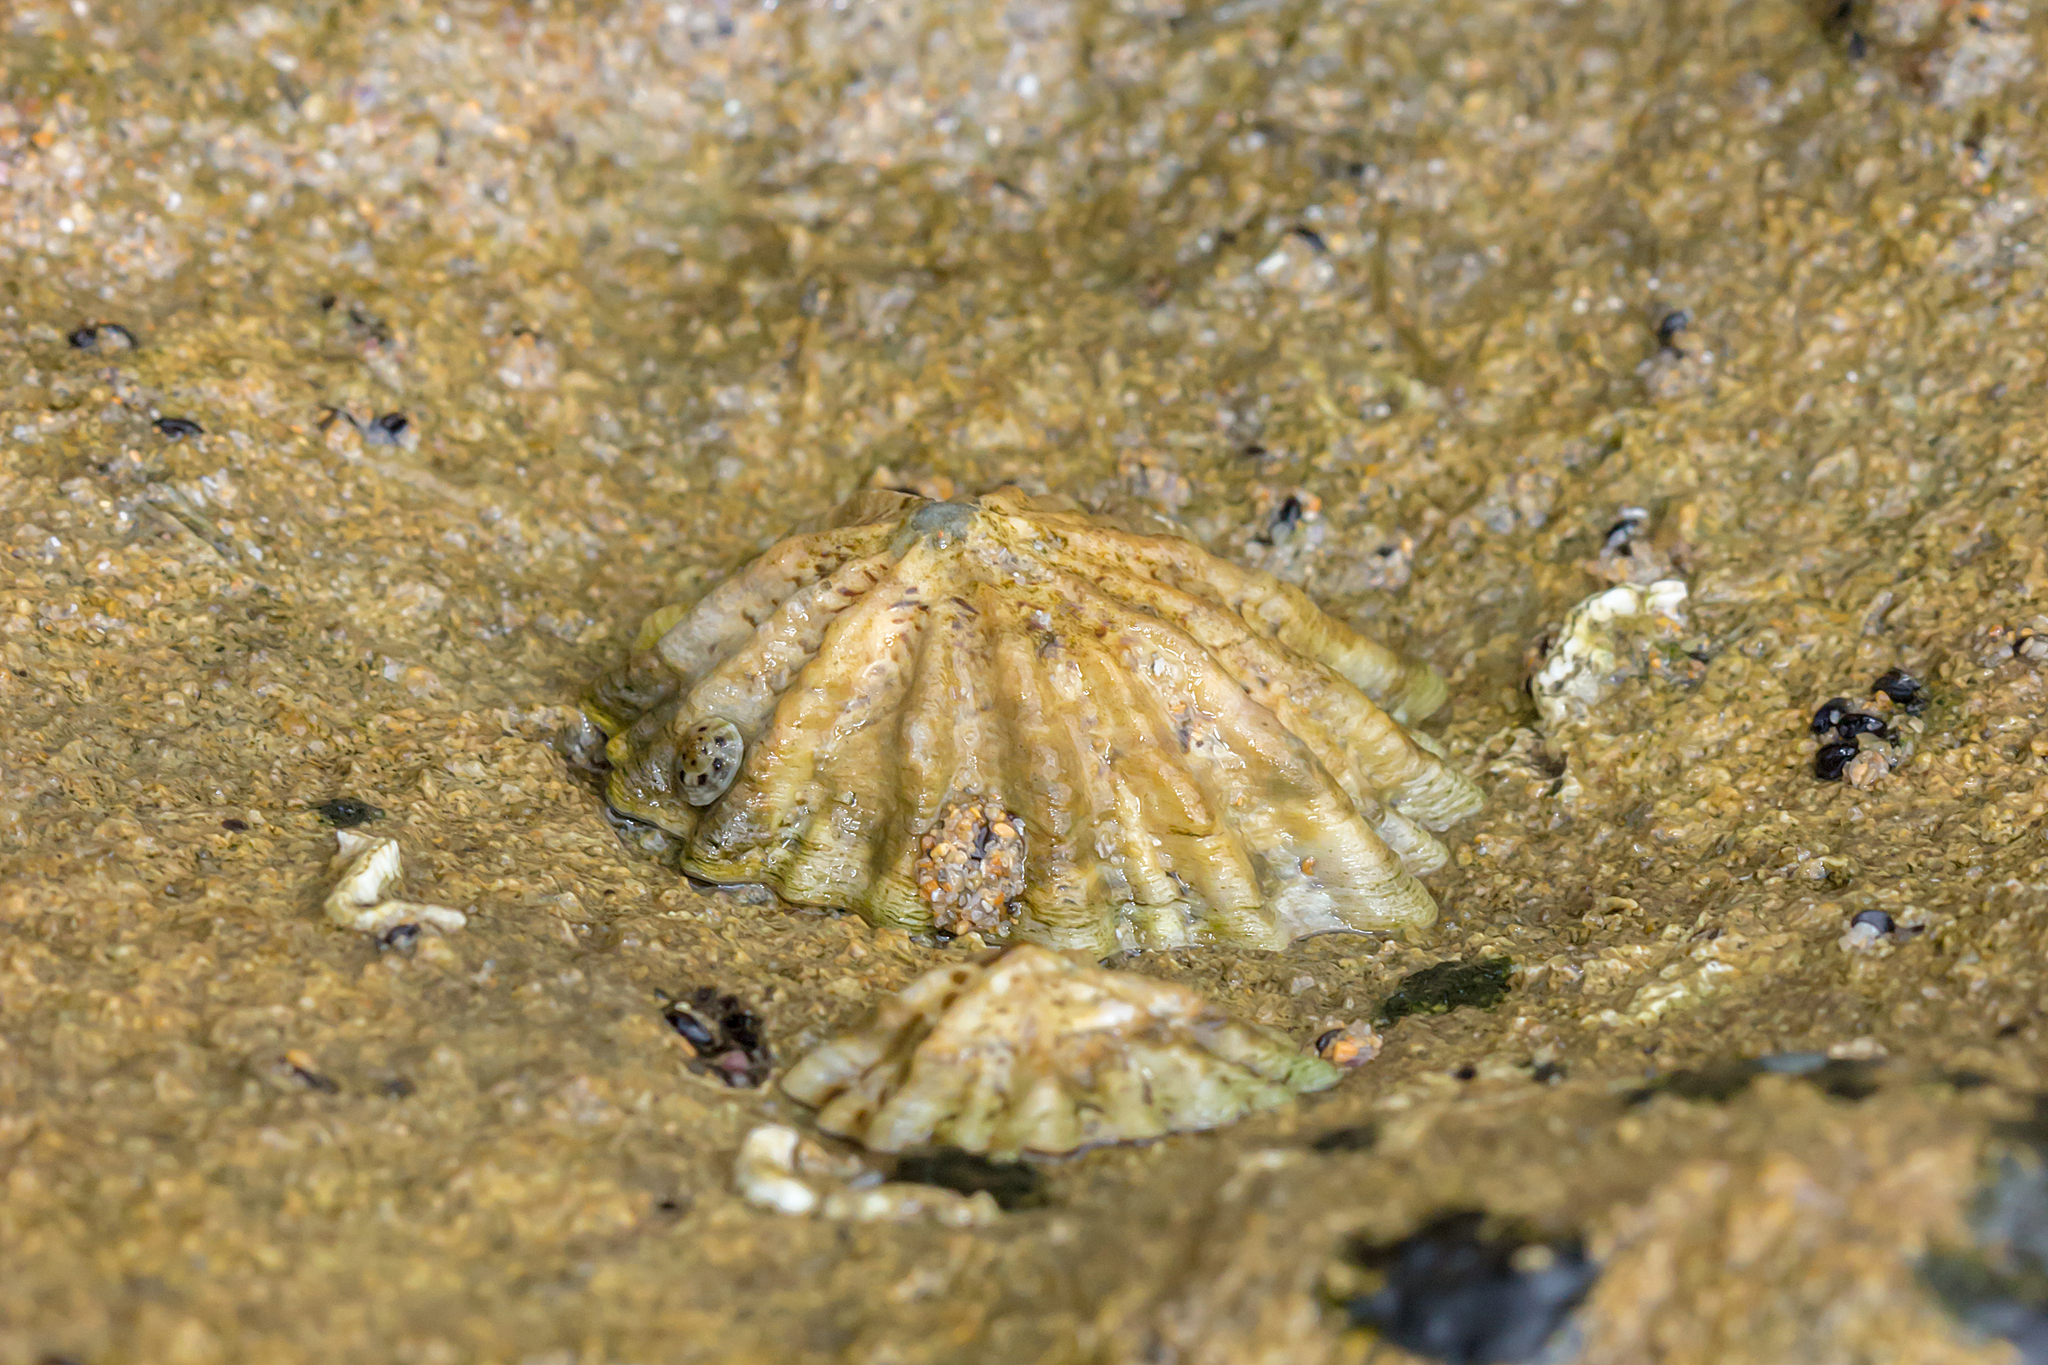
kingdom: Animalia
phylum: Mollusca
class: Gastropoda
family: Lottiidae
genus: Patelloida
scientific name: Patelloida alticostata
